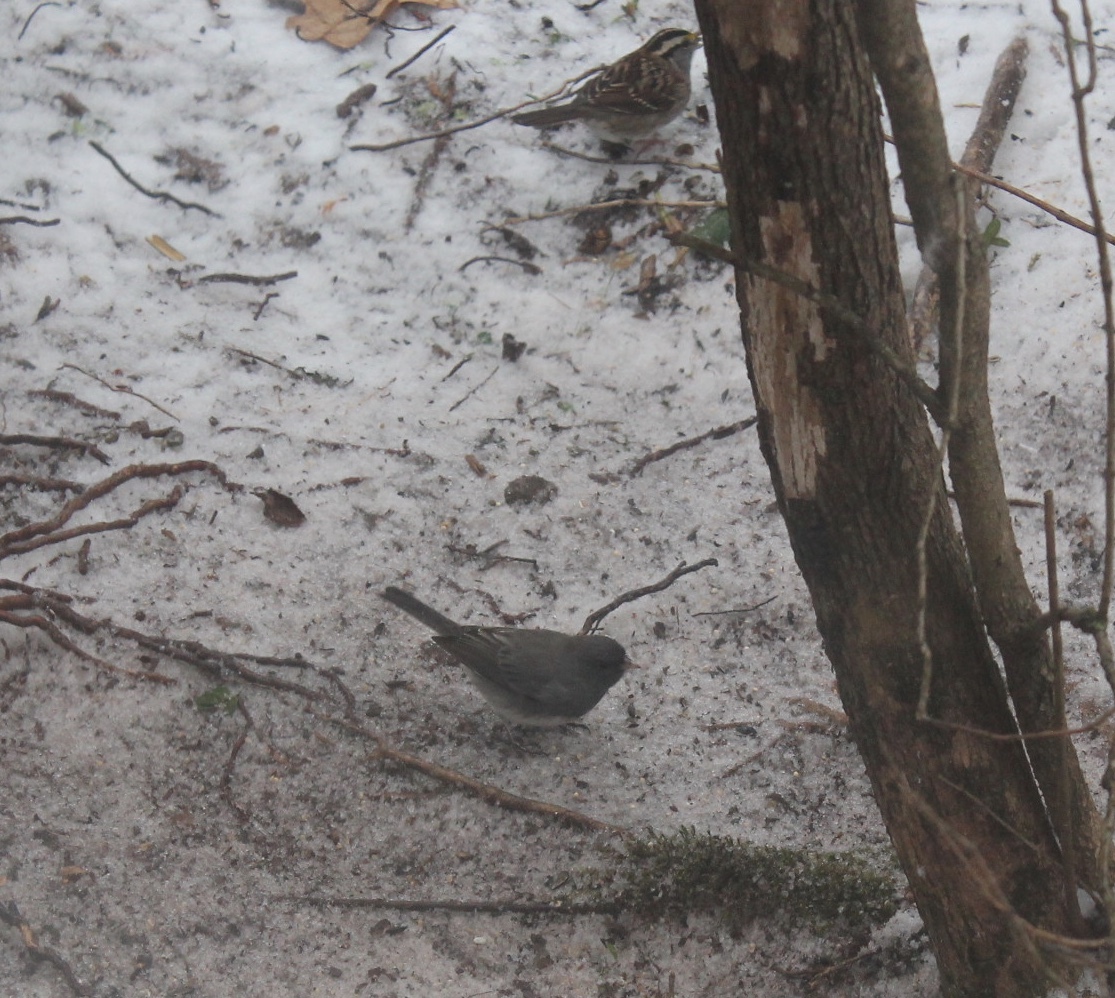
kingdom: Animalia
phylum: Chordata
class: Aves
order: Passeriformes
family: Passerellidae
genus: Junco
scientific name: Junco hyemalis
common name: Dark-eyed junco
